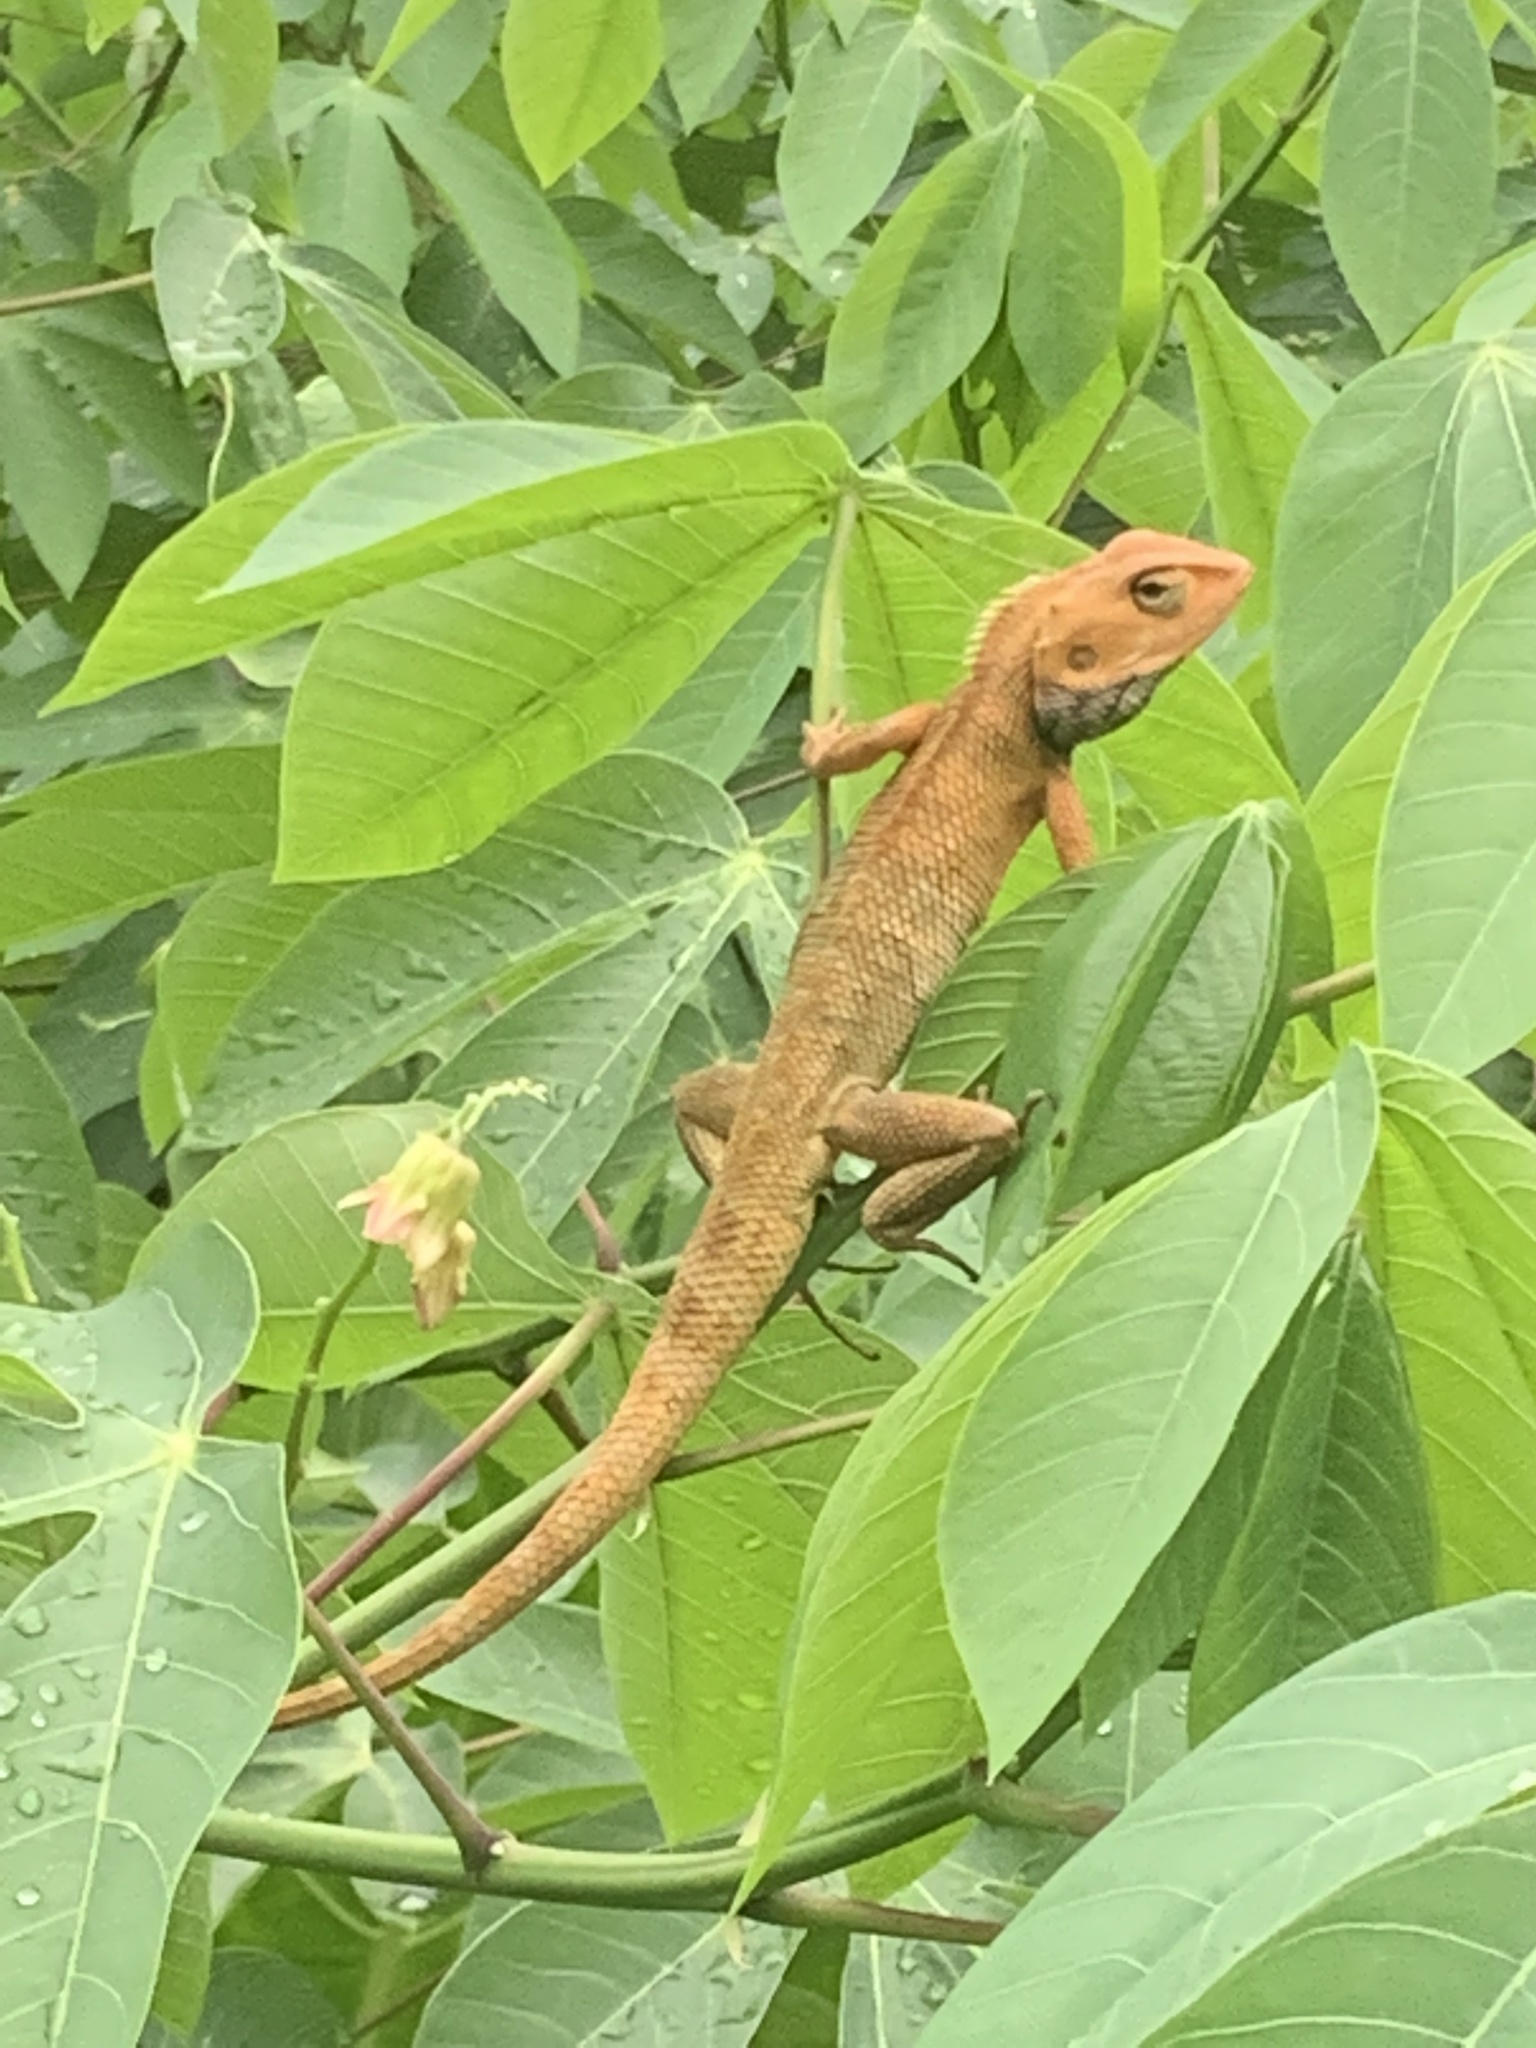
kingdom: Animalia
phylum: Chordata
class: Squamata
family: Agamidae
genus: Calotes
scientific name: Calotes versicolor
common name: Oriental garden lizard
